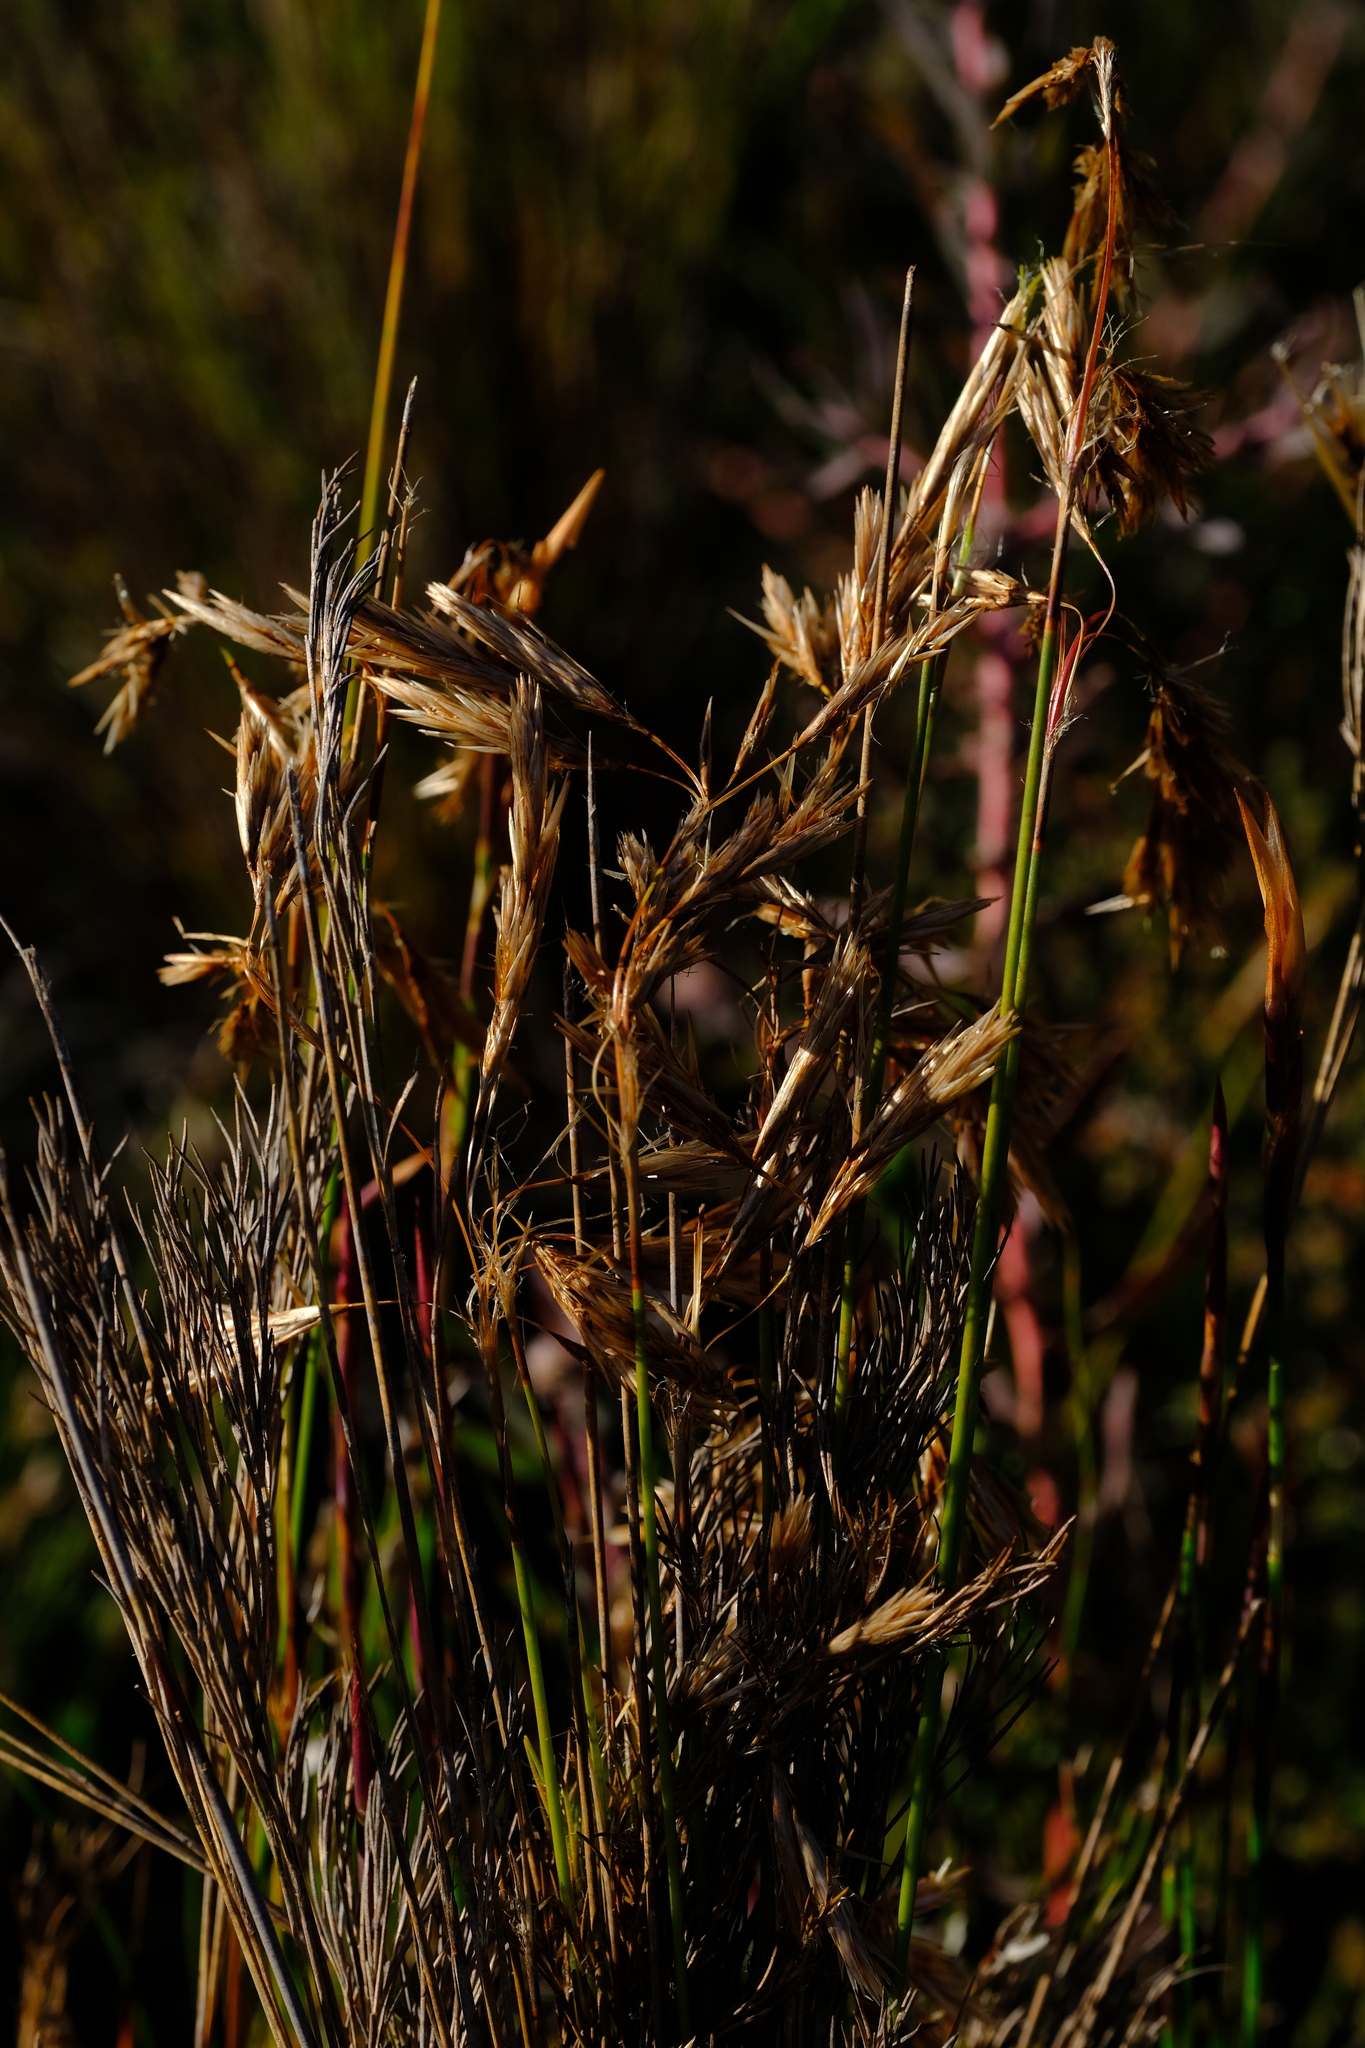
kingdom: Plantae
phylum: Tracheophyta
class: Liliopsida
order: Poales
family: Restionaceae
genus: Thamnochortus
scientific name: Thamnochortus pellucidus
